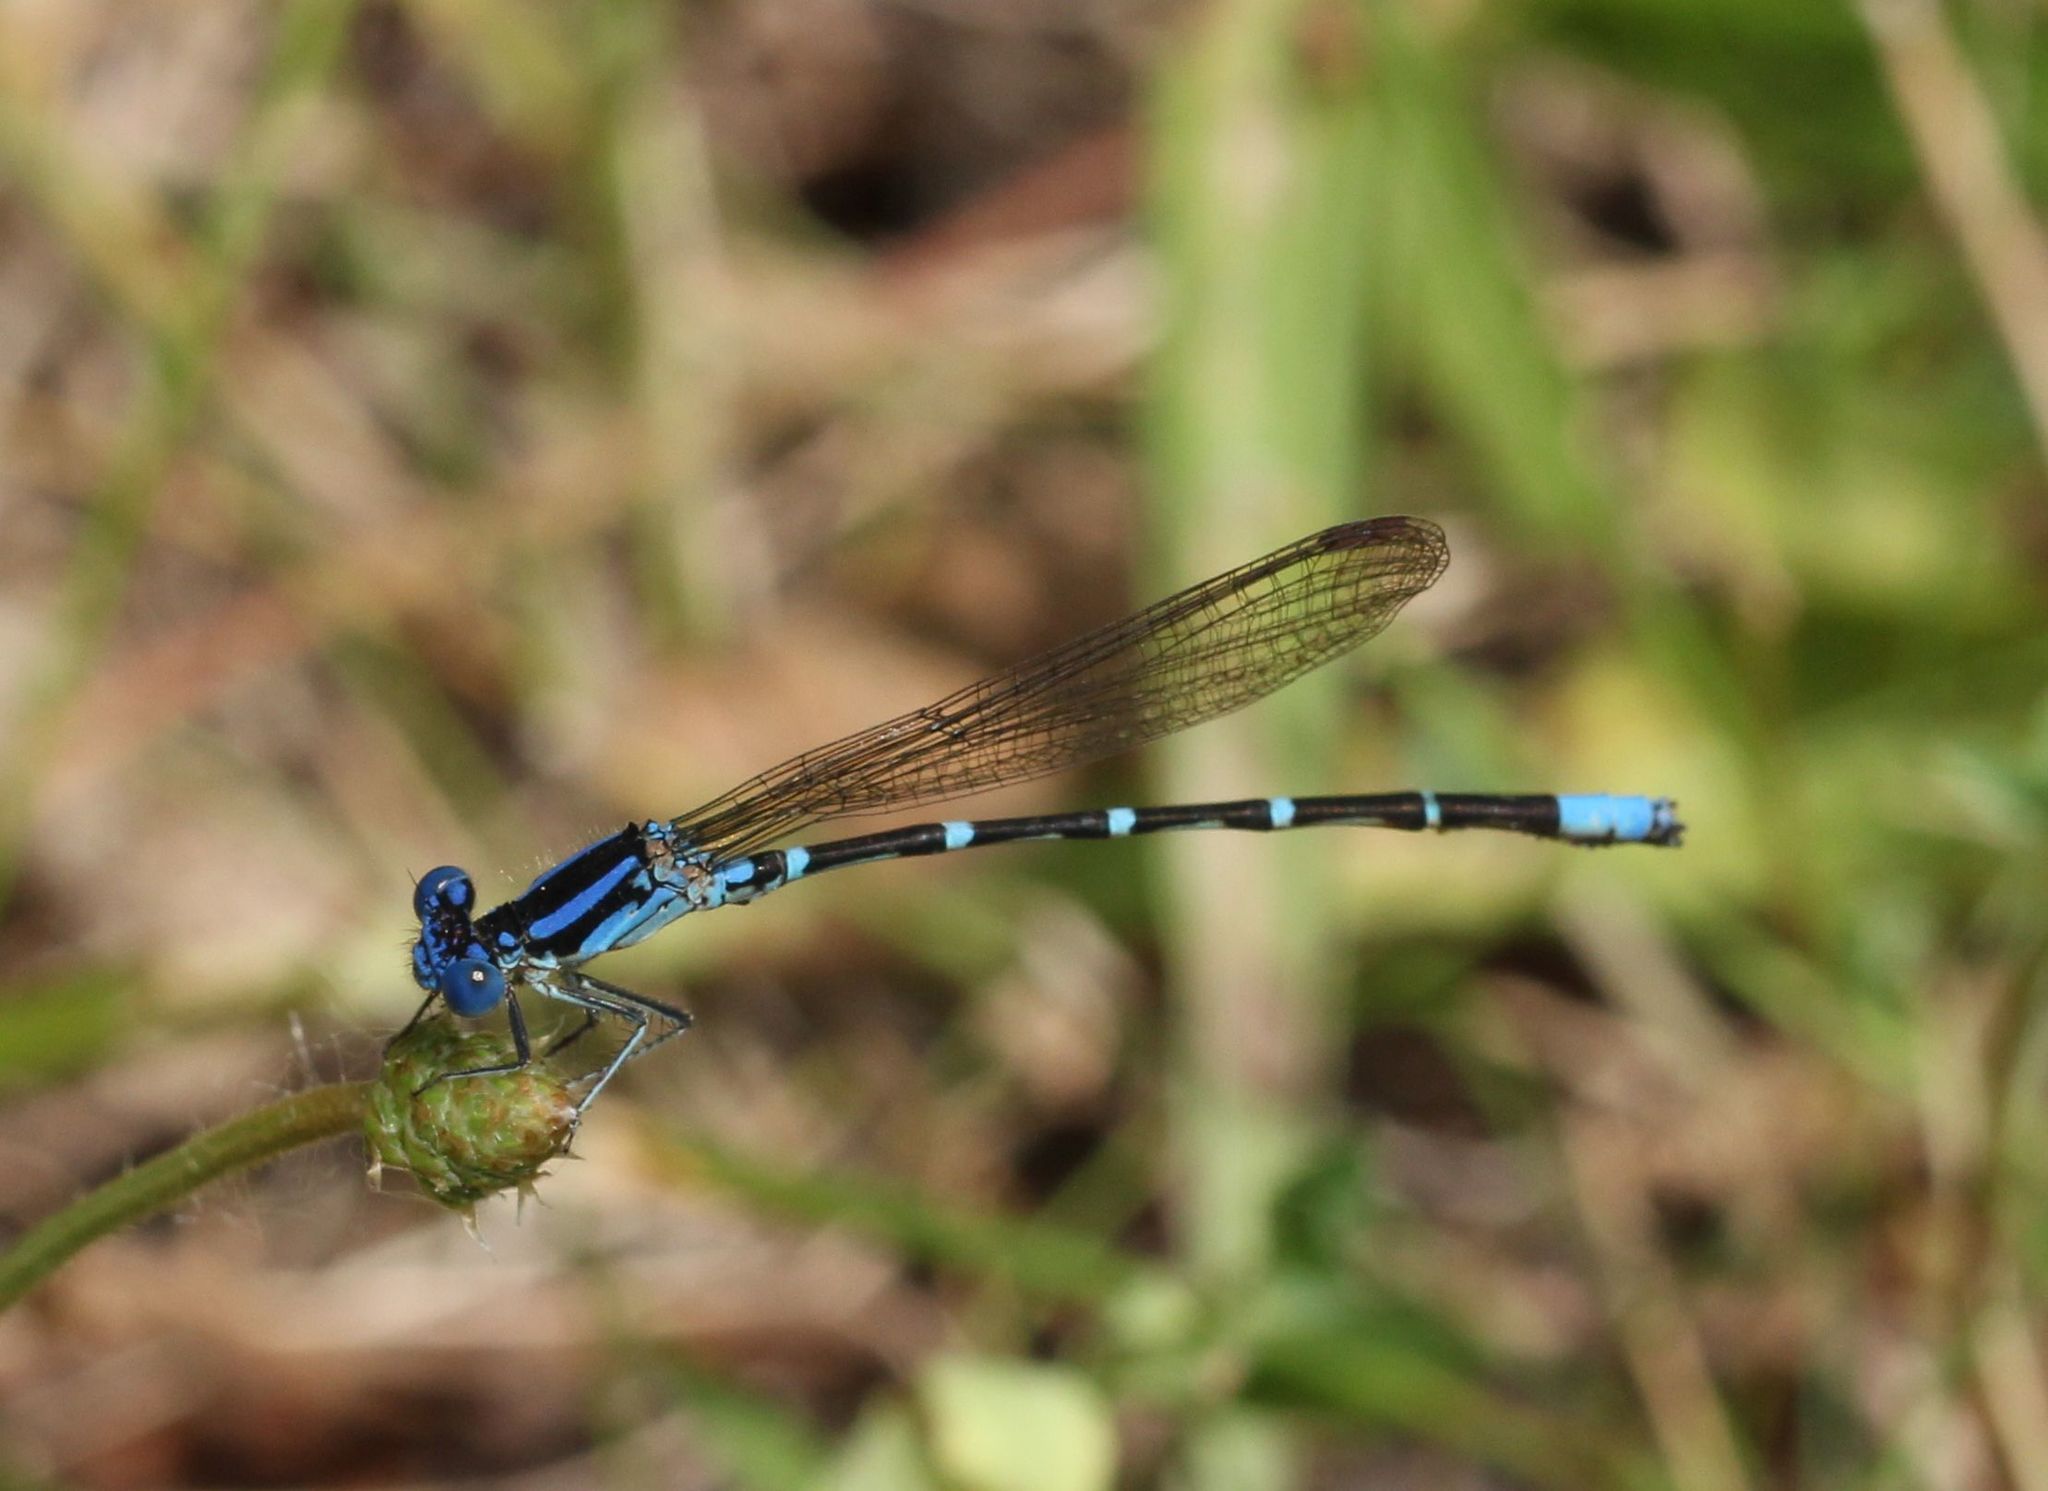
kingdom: Animalia
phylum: Arthropoda
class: Insecta
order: Odonata
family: Coenagrionidae
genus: Argia
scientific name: Argia sedula
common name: Blue-ringed dancer
